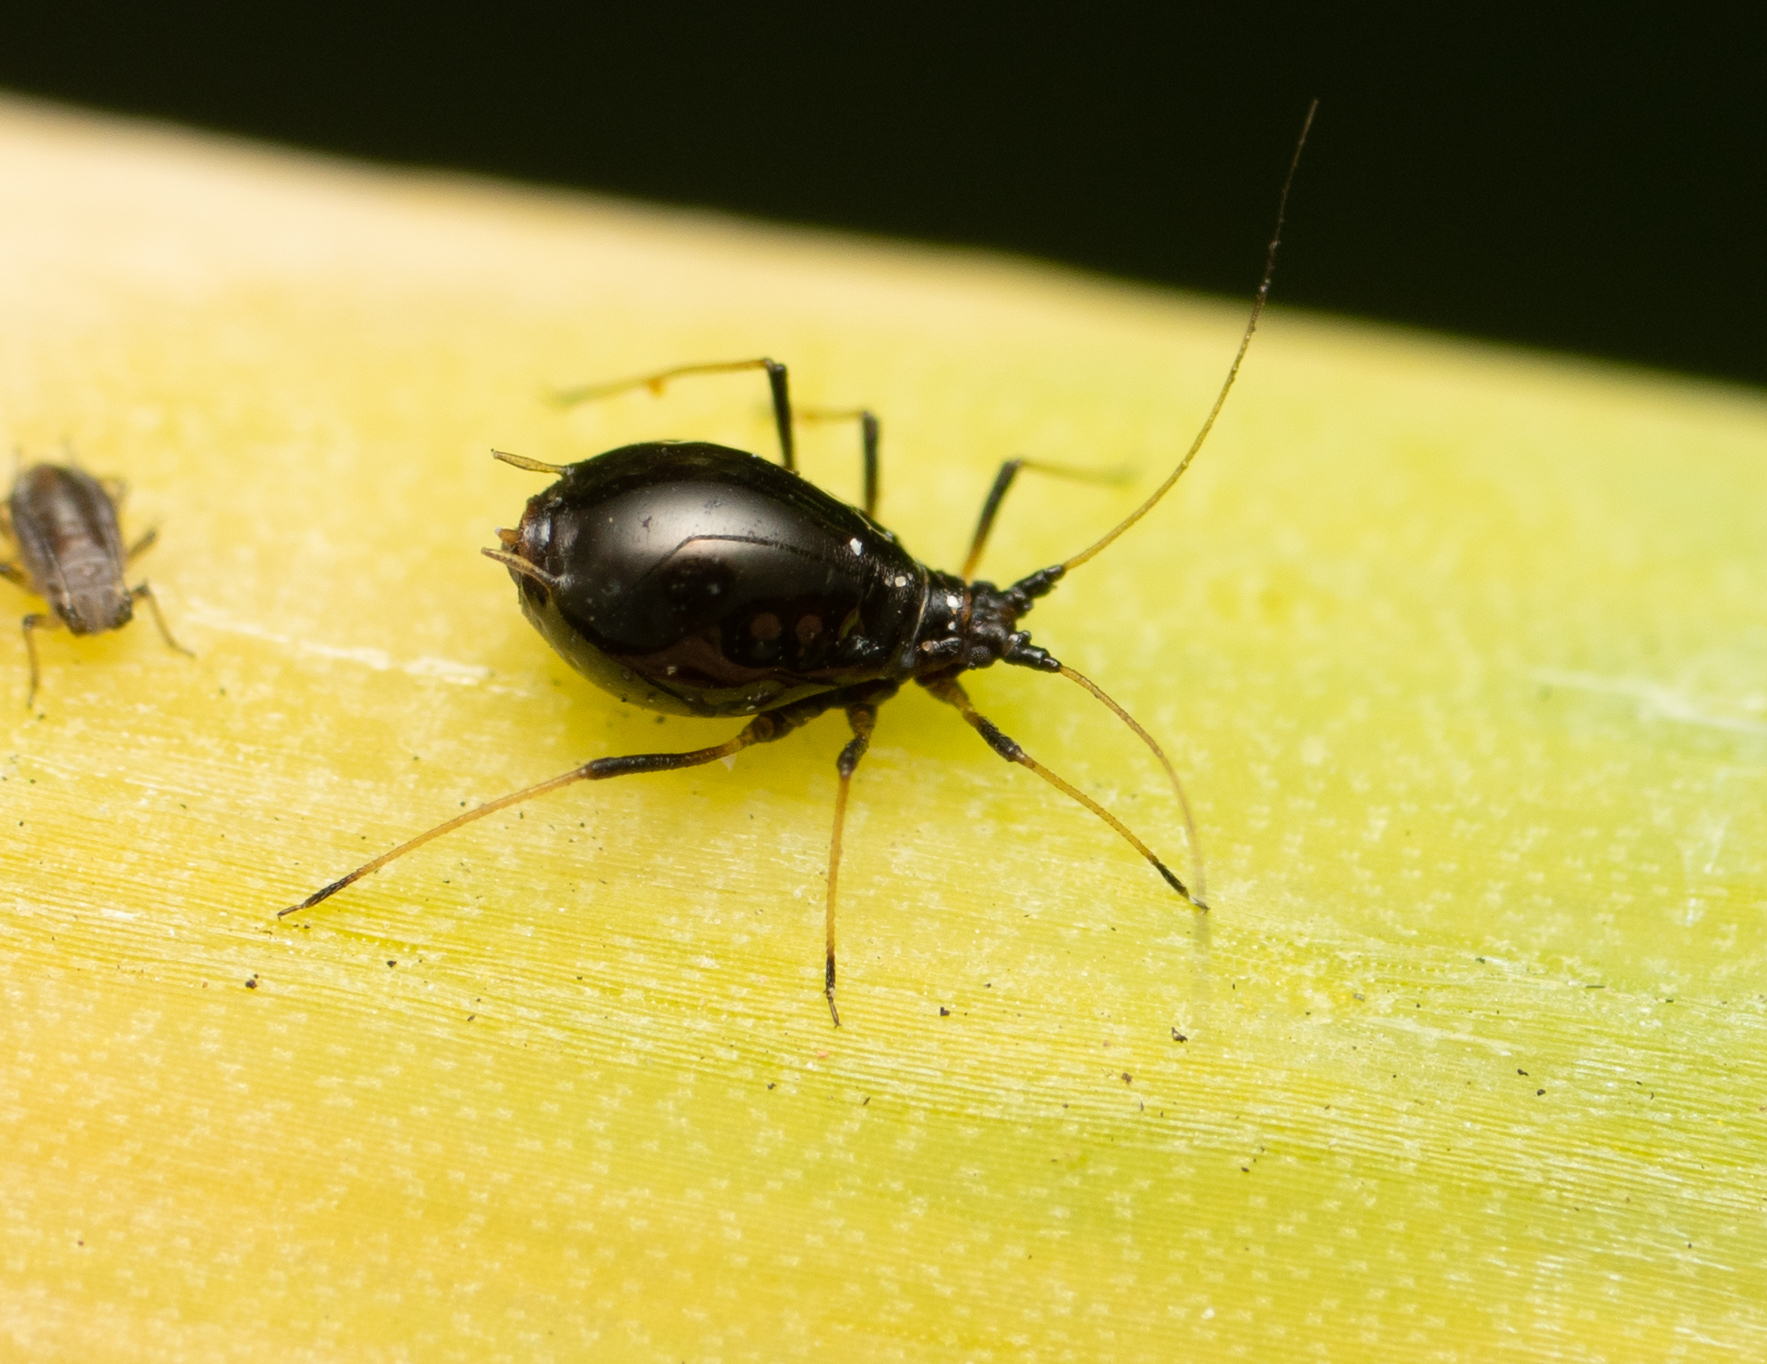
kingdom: Animalia
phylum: Arthropoda
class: Insecta
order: Hemiptera
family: Aphididae
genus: Neotoxoptera
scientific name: Neotoxoptera formosana
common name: Onion aphid
